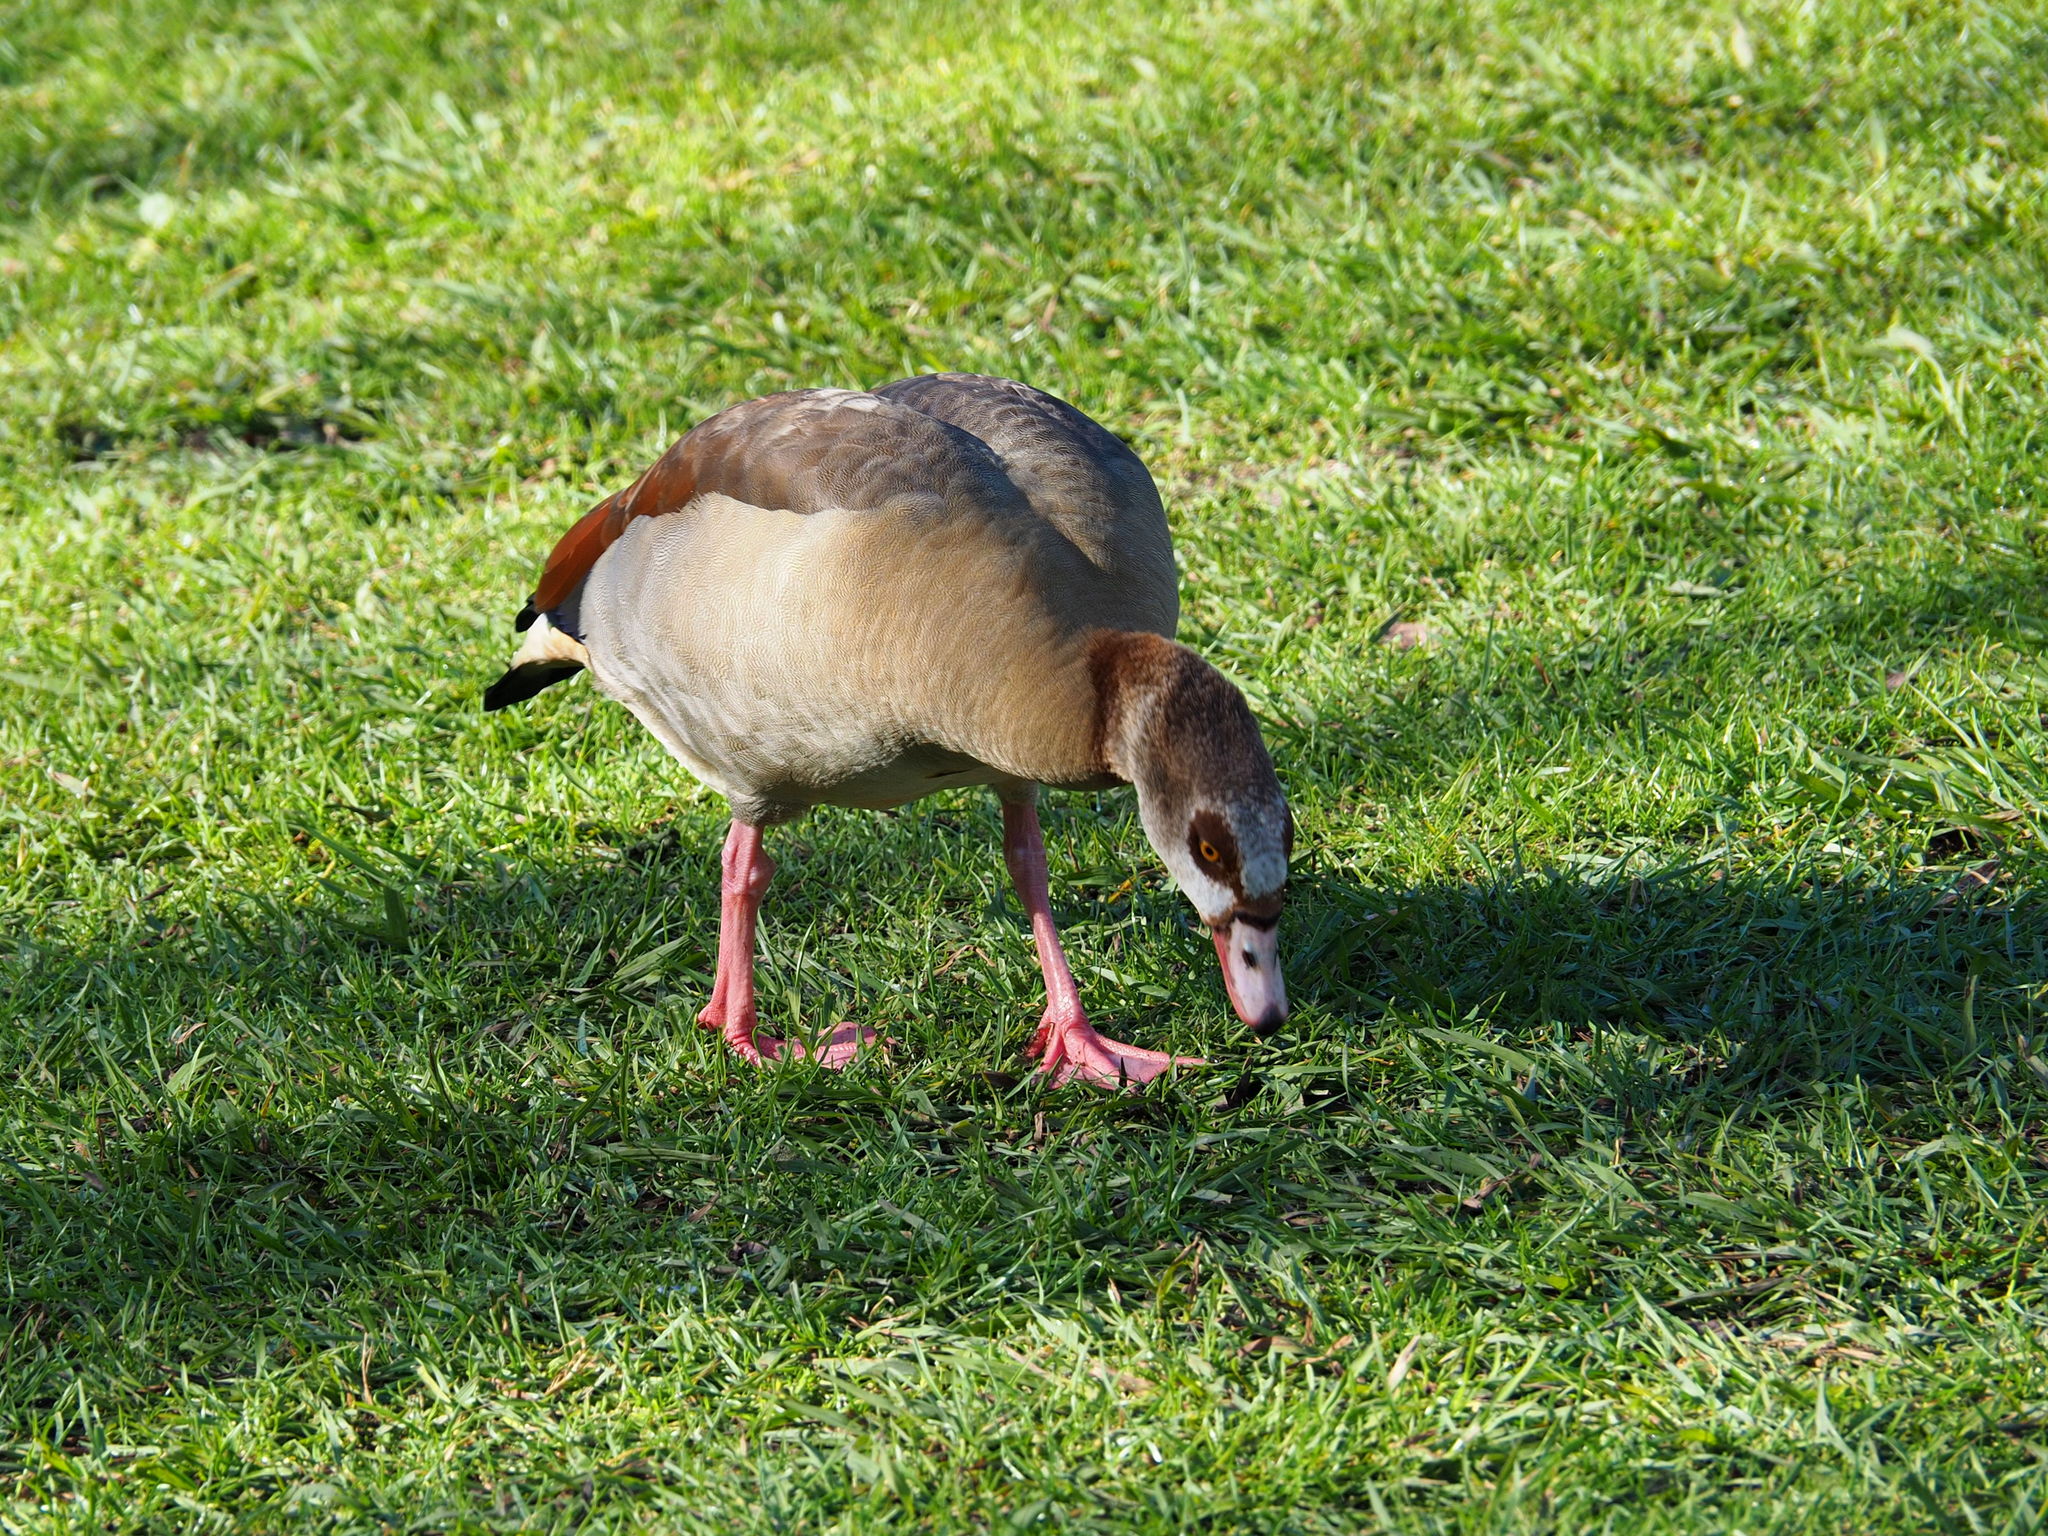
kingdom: Animalia
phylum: Chordata
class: Aves
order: Anseriformes
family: Anatidae
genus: Alopochen
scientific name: Alopochen aegyptiaca
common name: Egyptian goose
